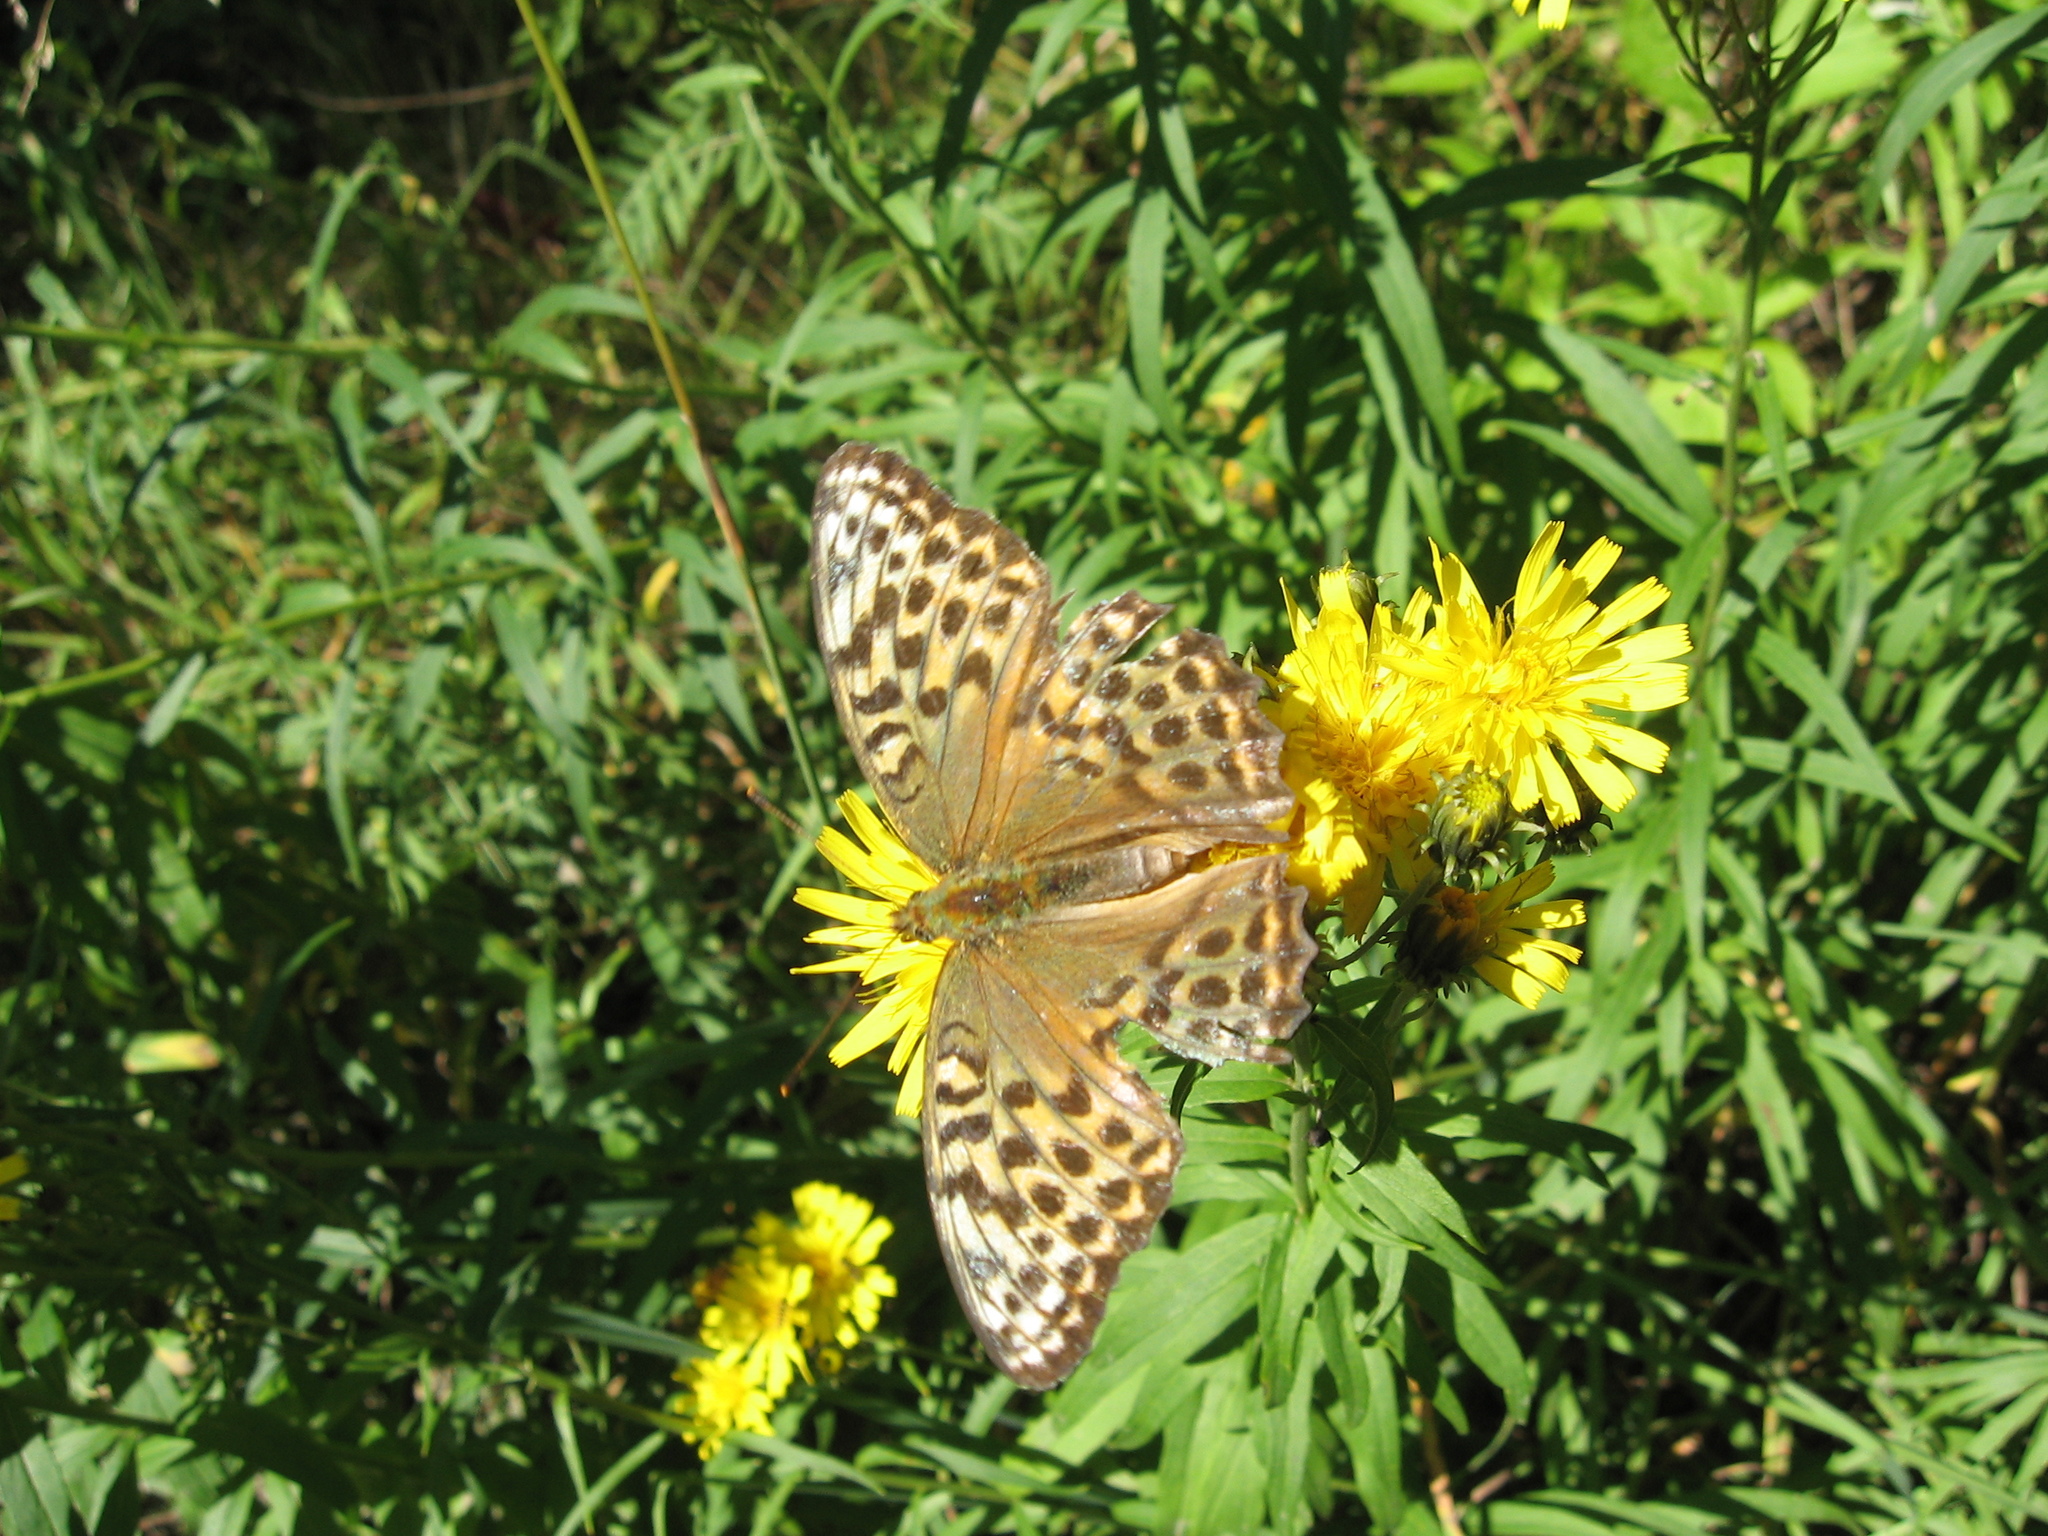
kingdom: Animalia
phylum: Arthropoda
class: Insecta
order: Lepidoptera
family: Nymphalidae
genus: Argynnis
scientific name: Argynnis paphia
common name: Silver-washed fritillary
